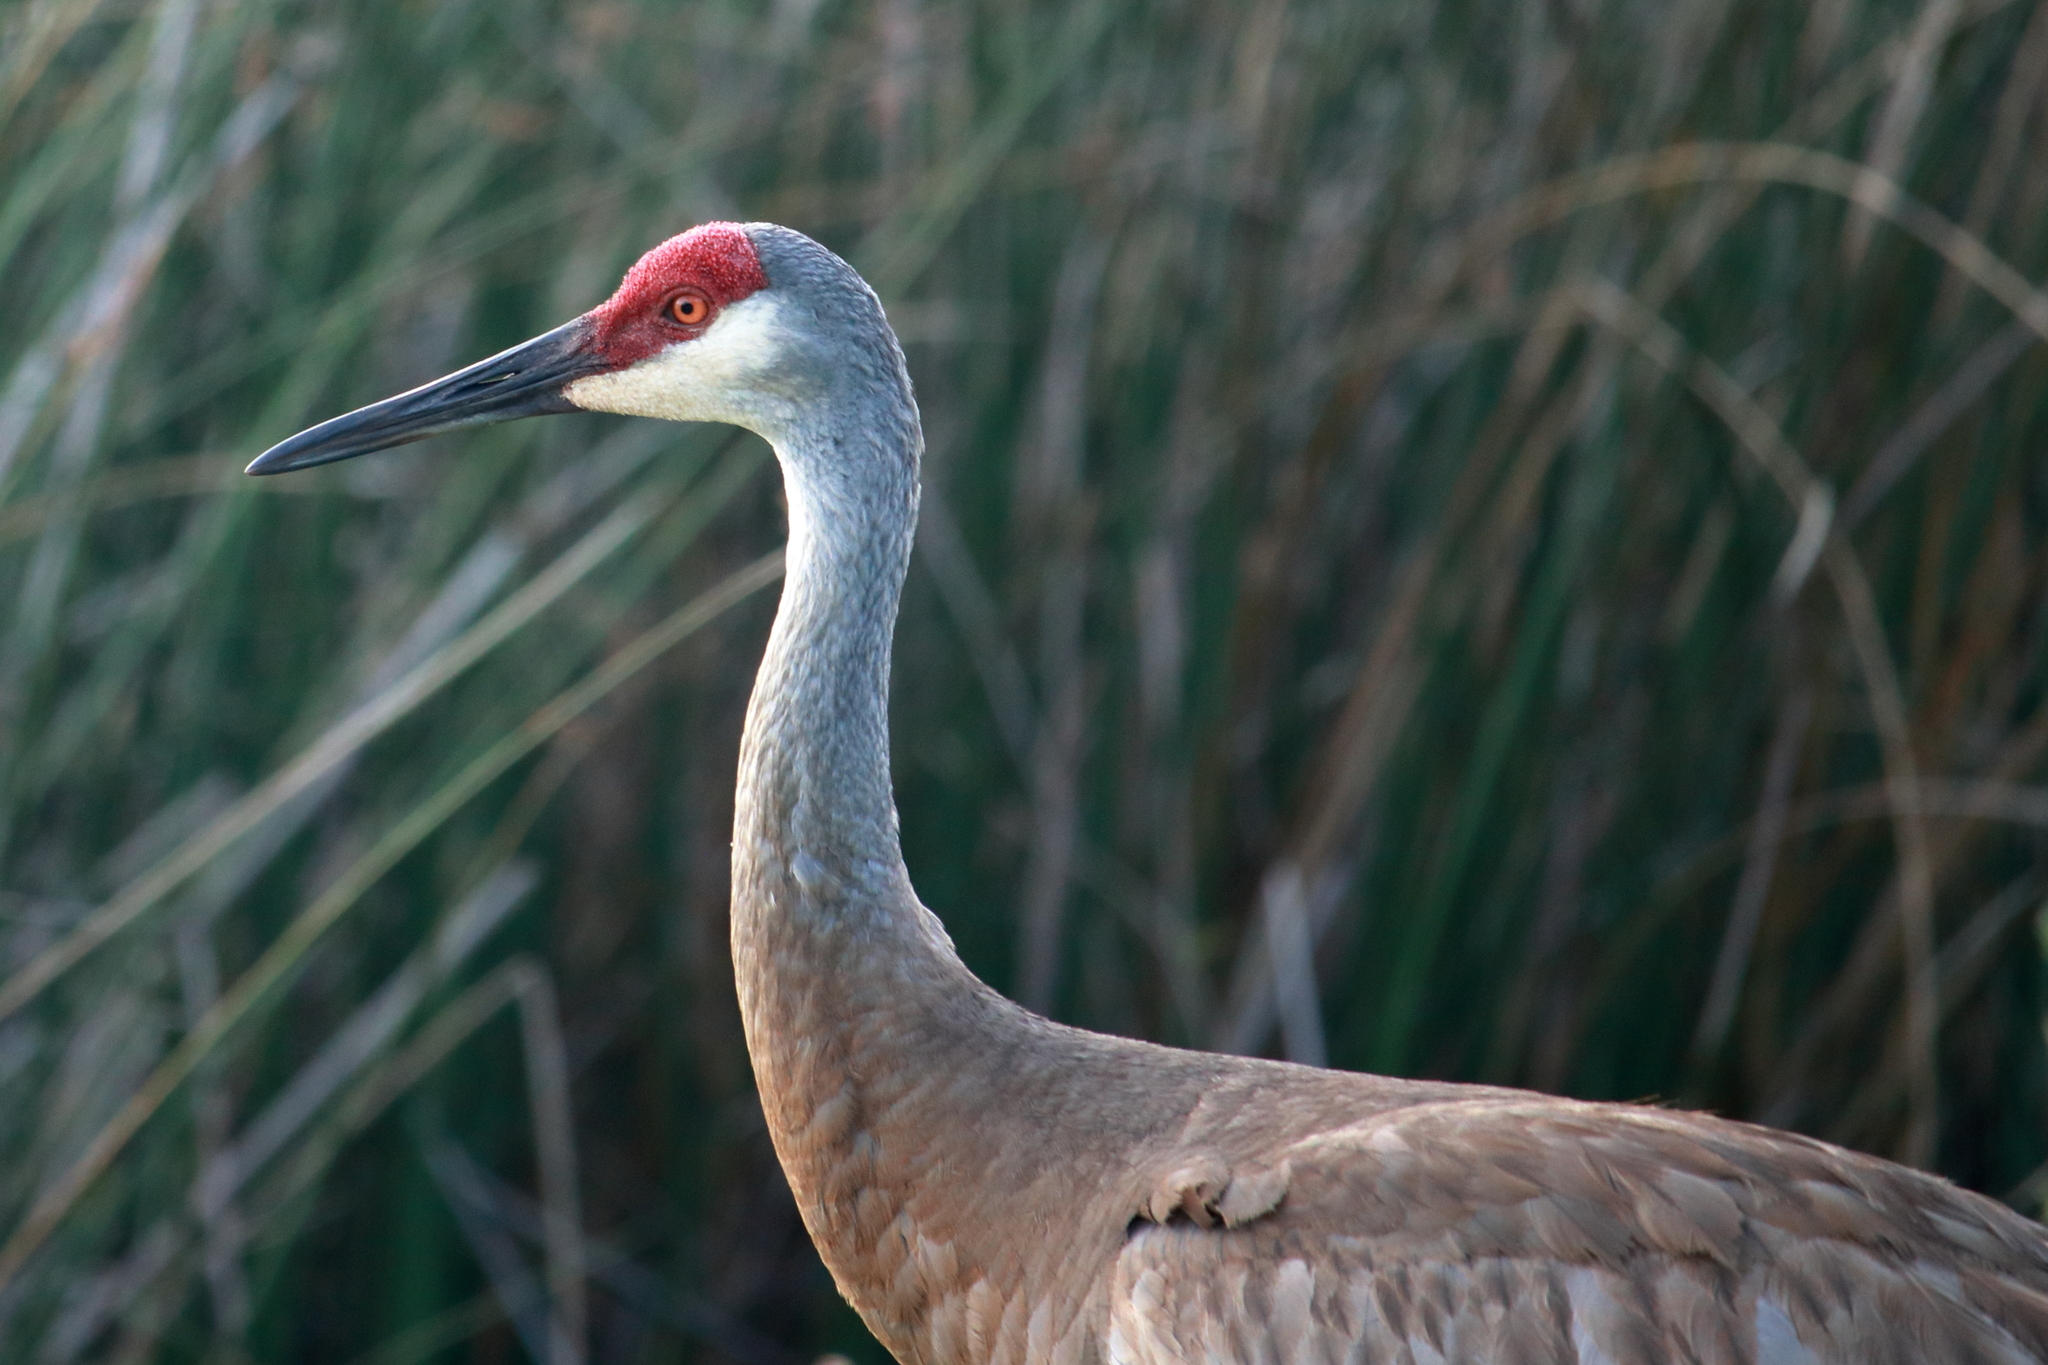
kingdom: Animalia
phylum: Chordata
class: Aves
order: Gruiformes
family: Gruidae
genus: Grus
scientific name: Grus canadensis
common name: Sandhill crane
